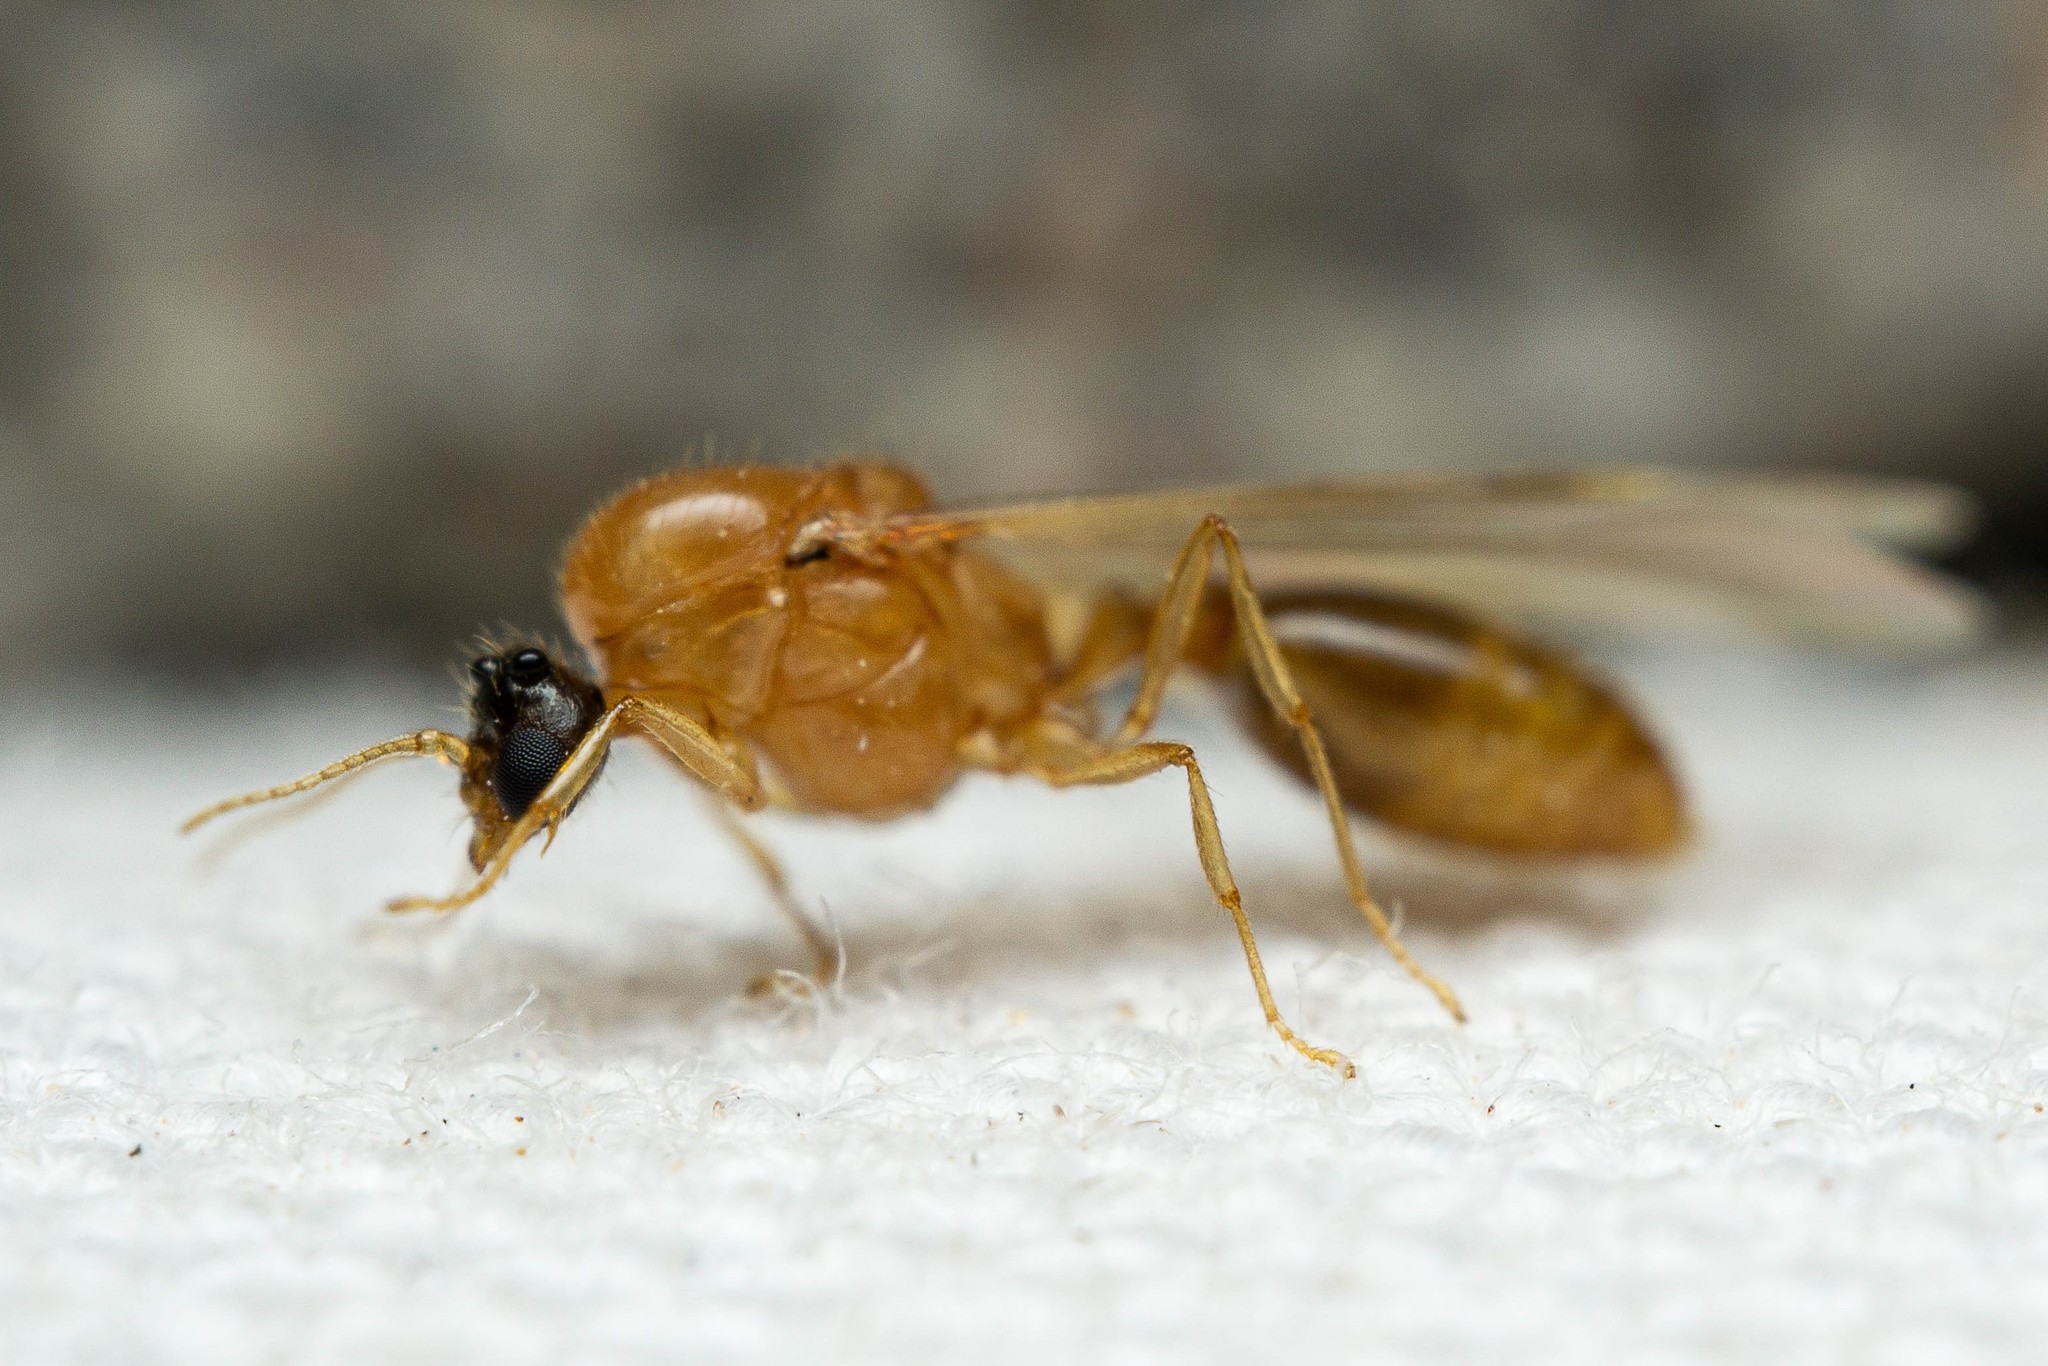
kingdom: Animalia
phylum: Arthropoda
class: Insecta
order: Hymenoptera
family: Formicidae
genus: Solenopsis
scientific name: Solenopsis krockowi
